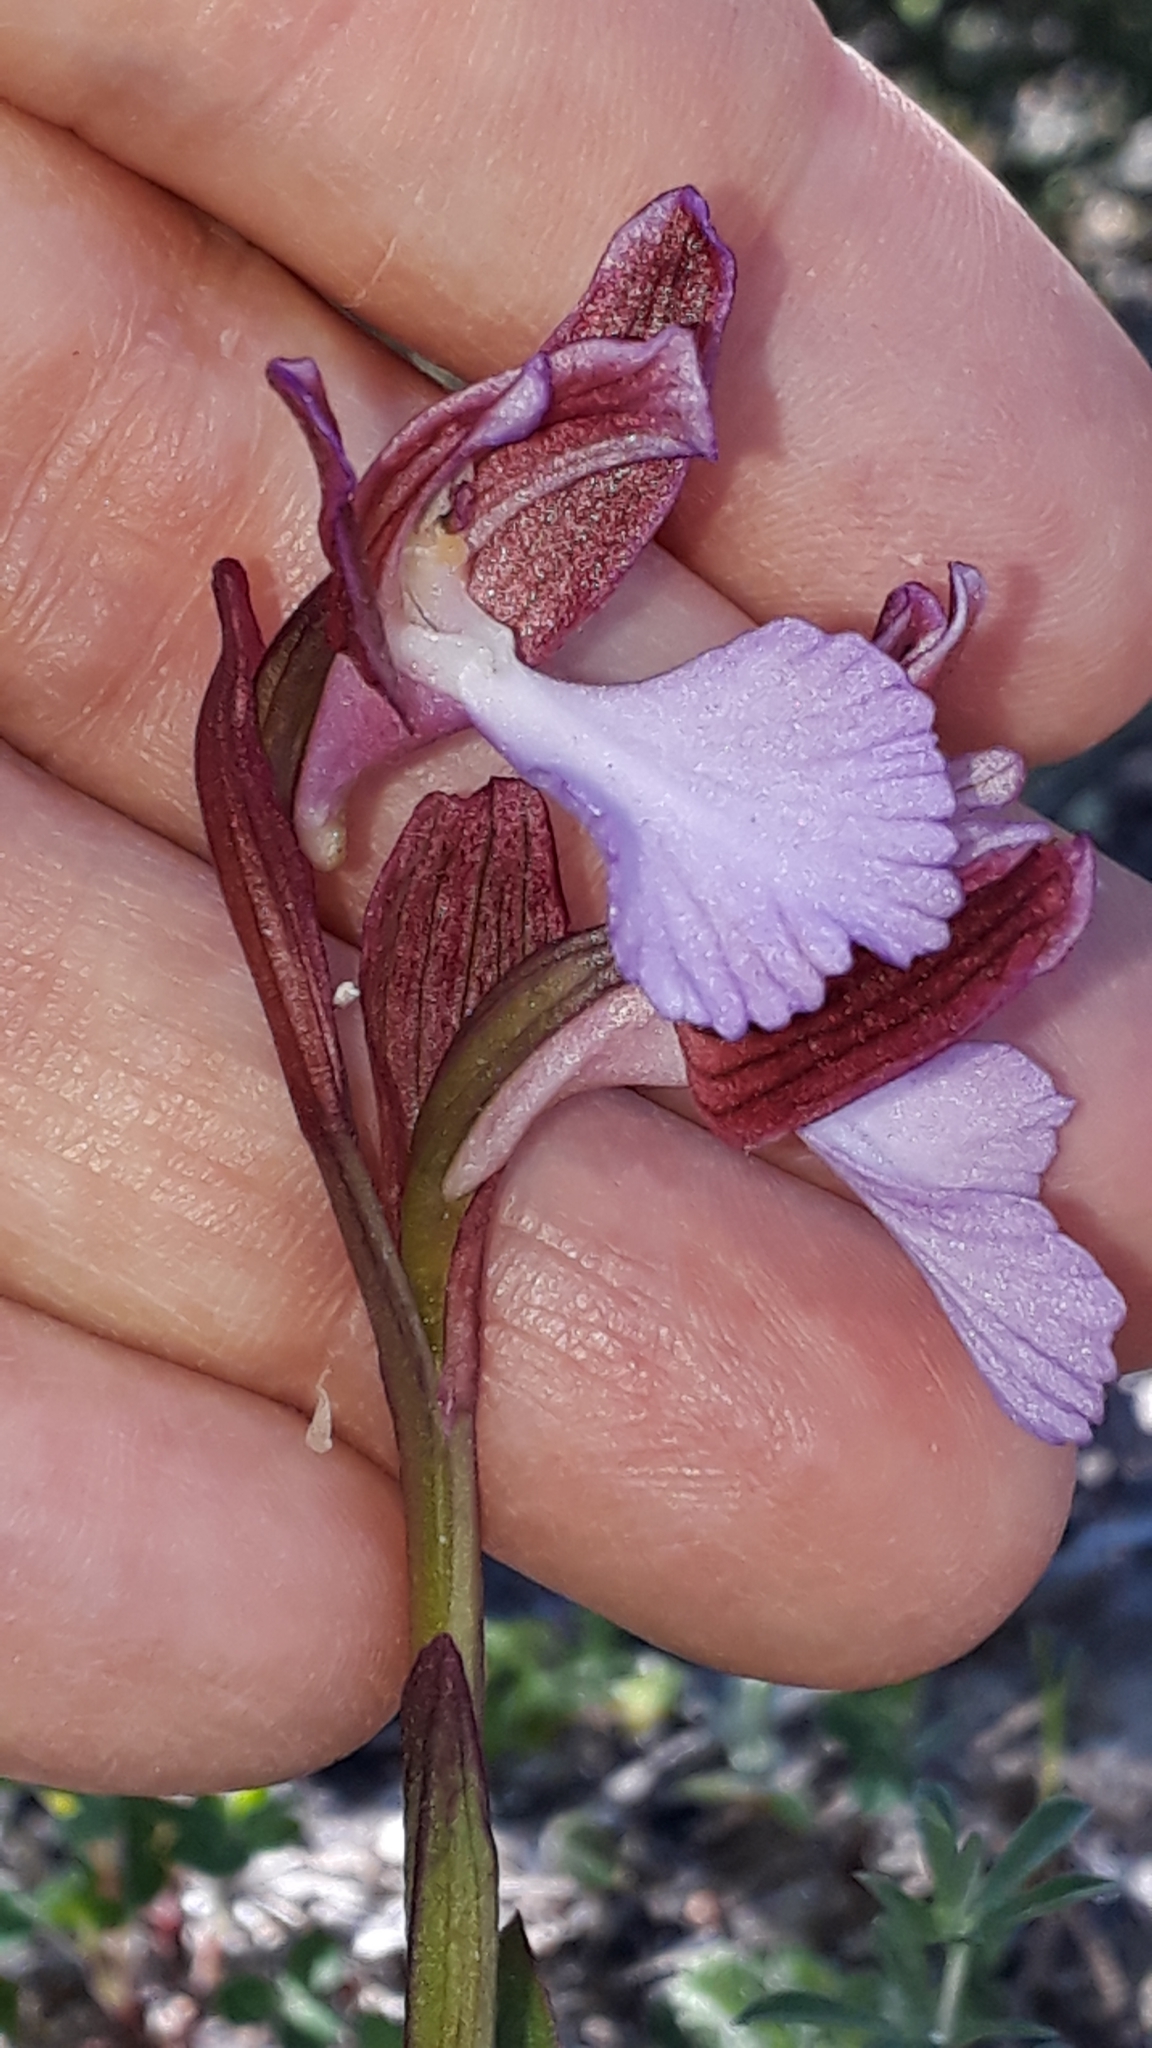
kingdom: Plantae
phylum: Tracheophyta
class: Liliopsida
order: Asparagales
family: Orchidaceae
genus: Anacamptis
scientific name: Anacamptis papilionacea
